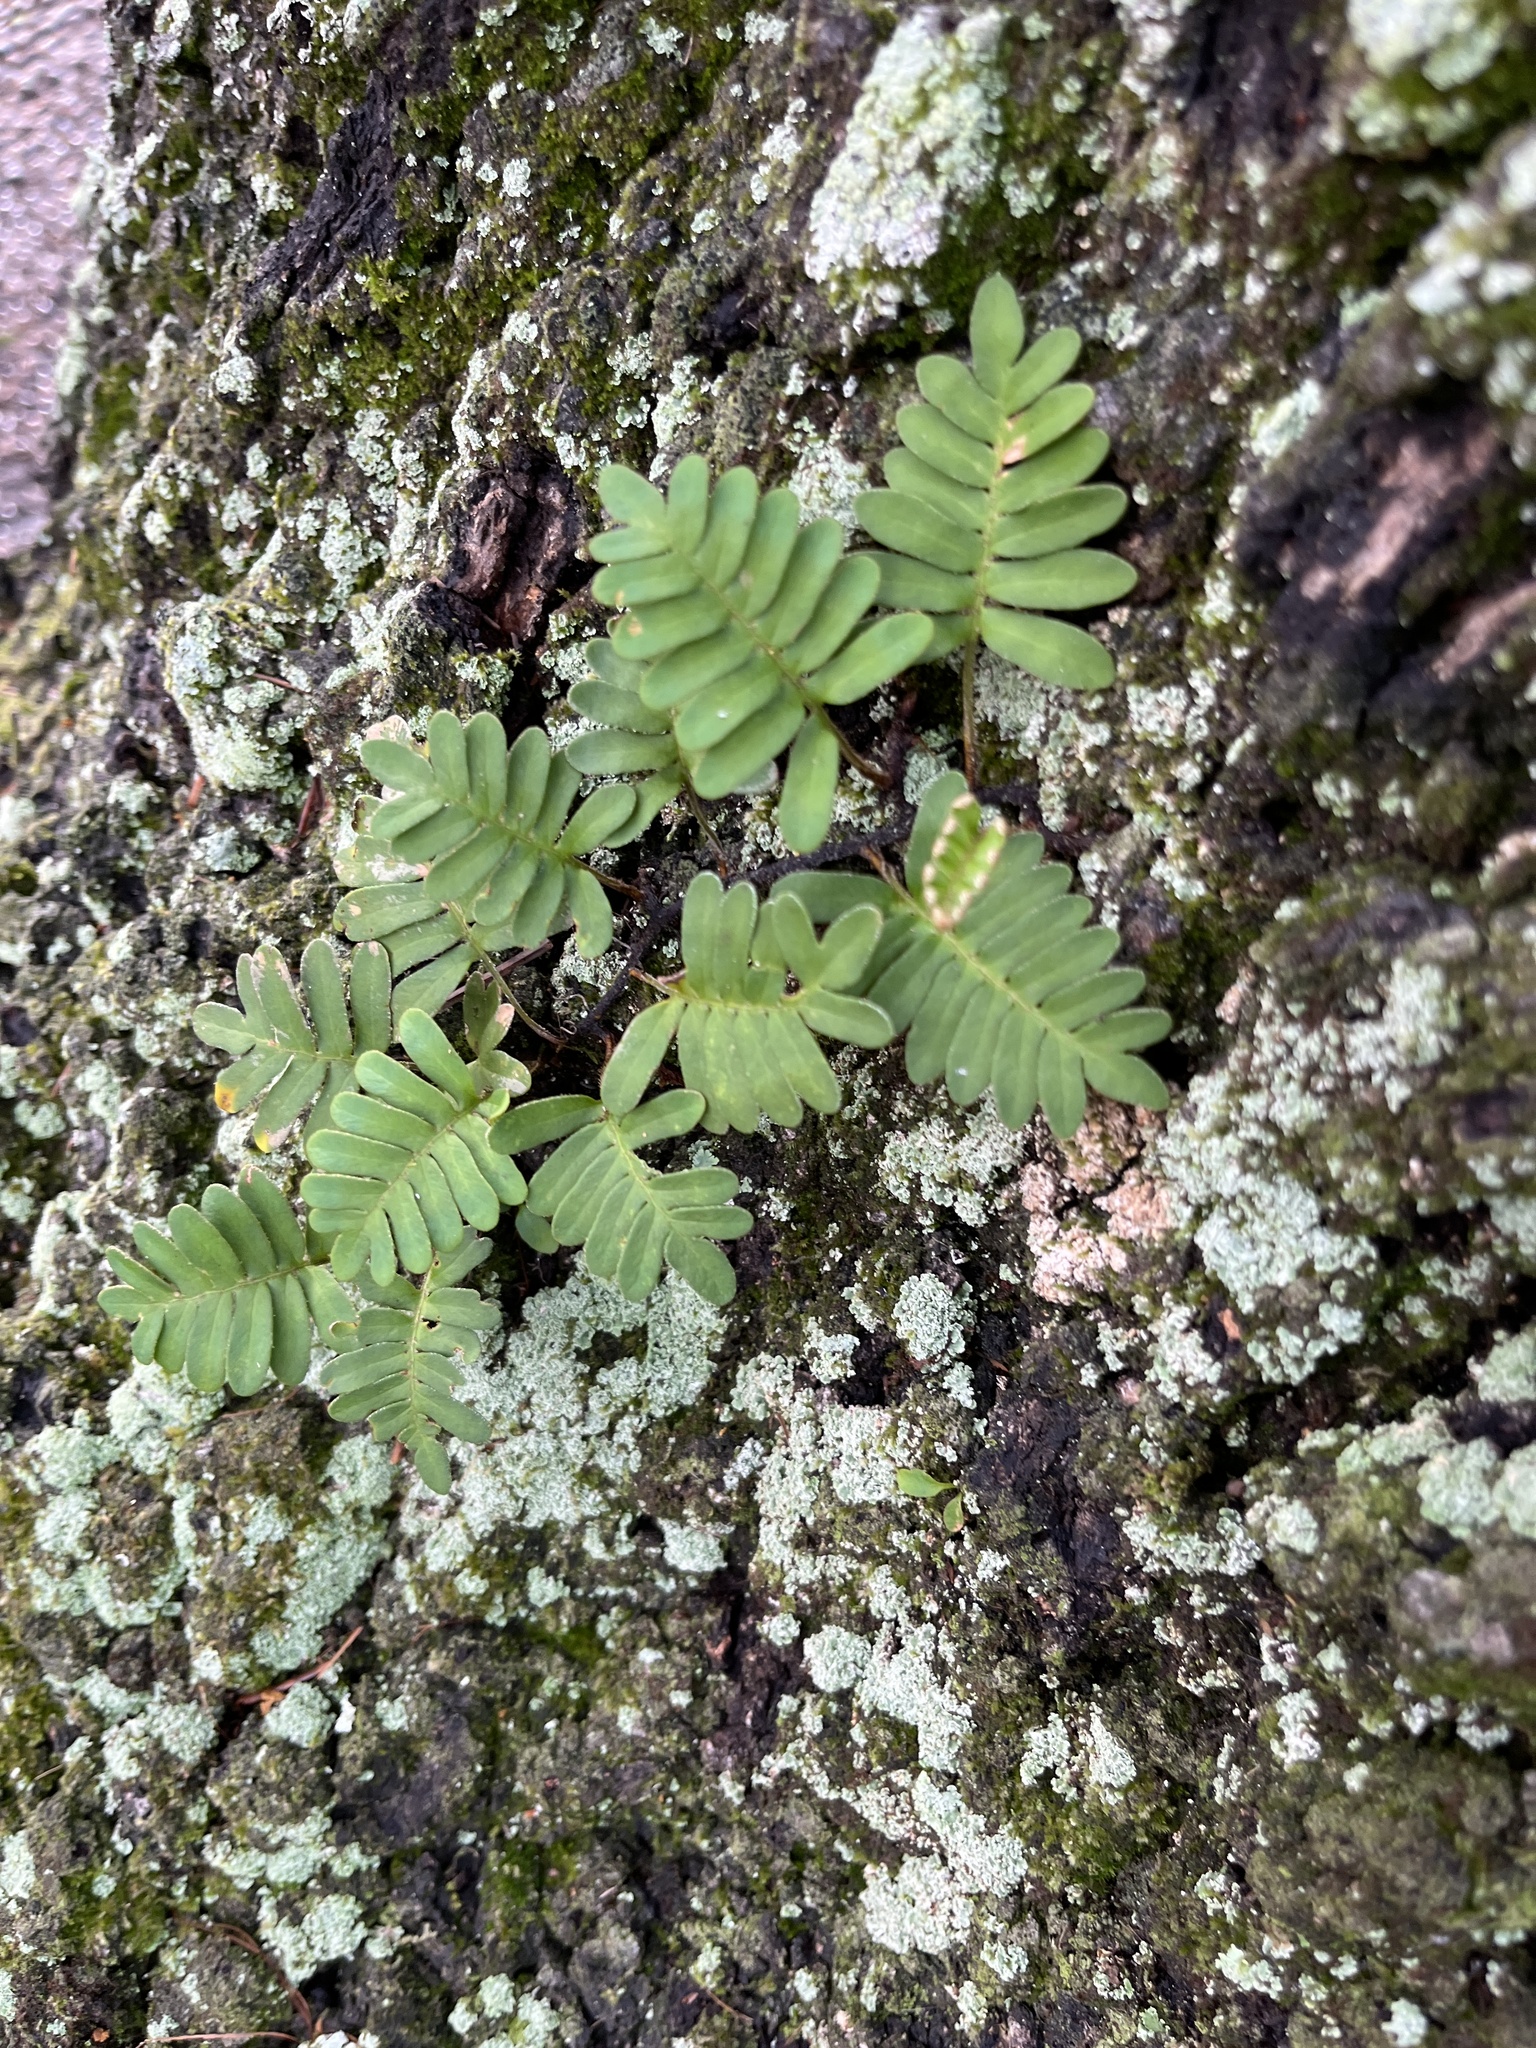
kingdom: Plantae
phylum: Tracheophyta
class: Polypodiopsida
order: Polypodiales
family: Polypodiaceae
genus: Pleopeltis
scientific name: Pleopeltis michauxiana
